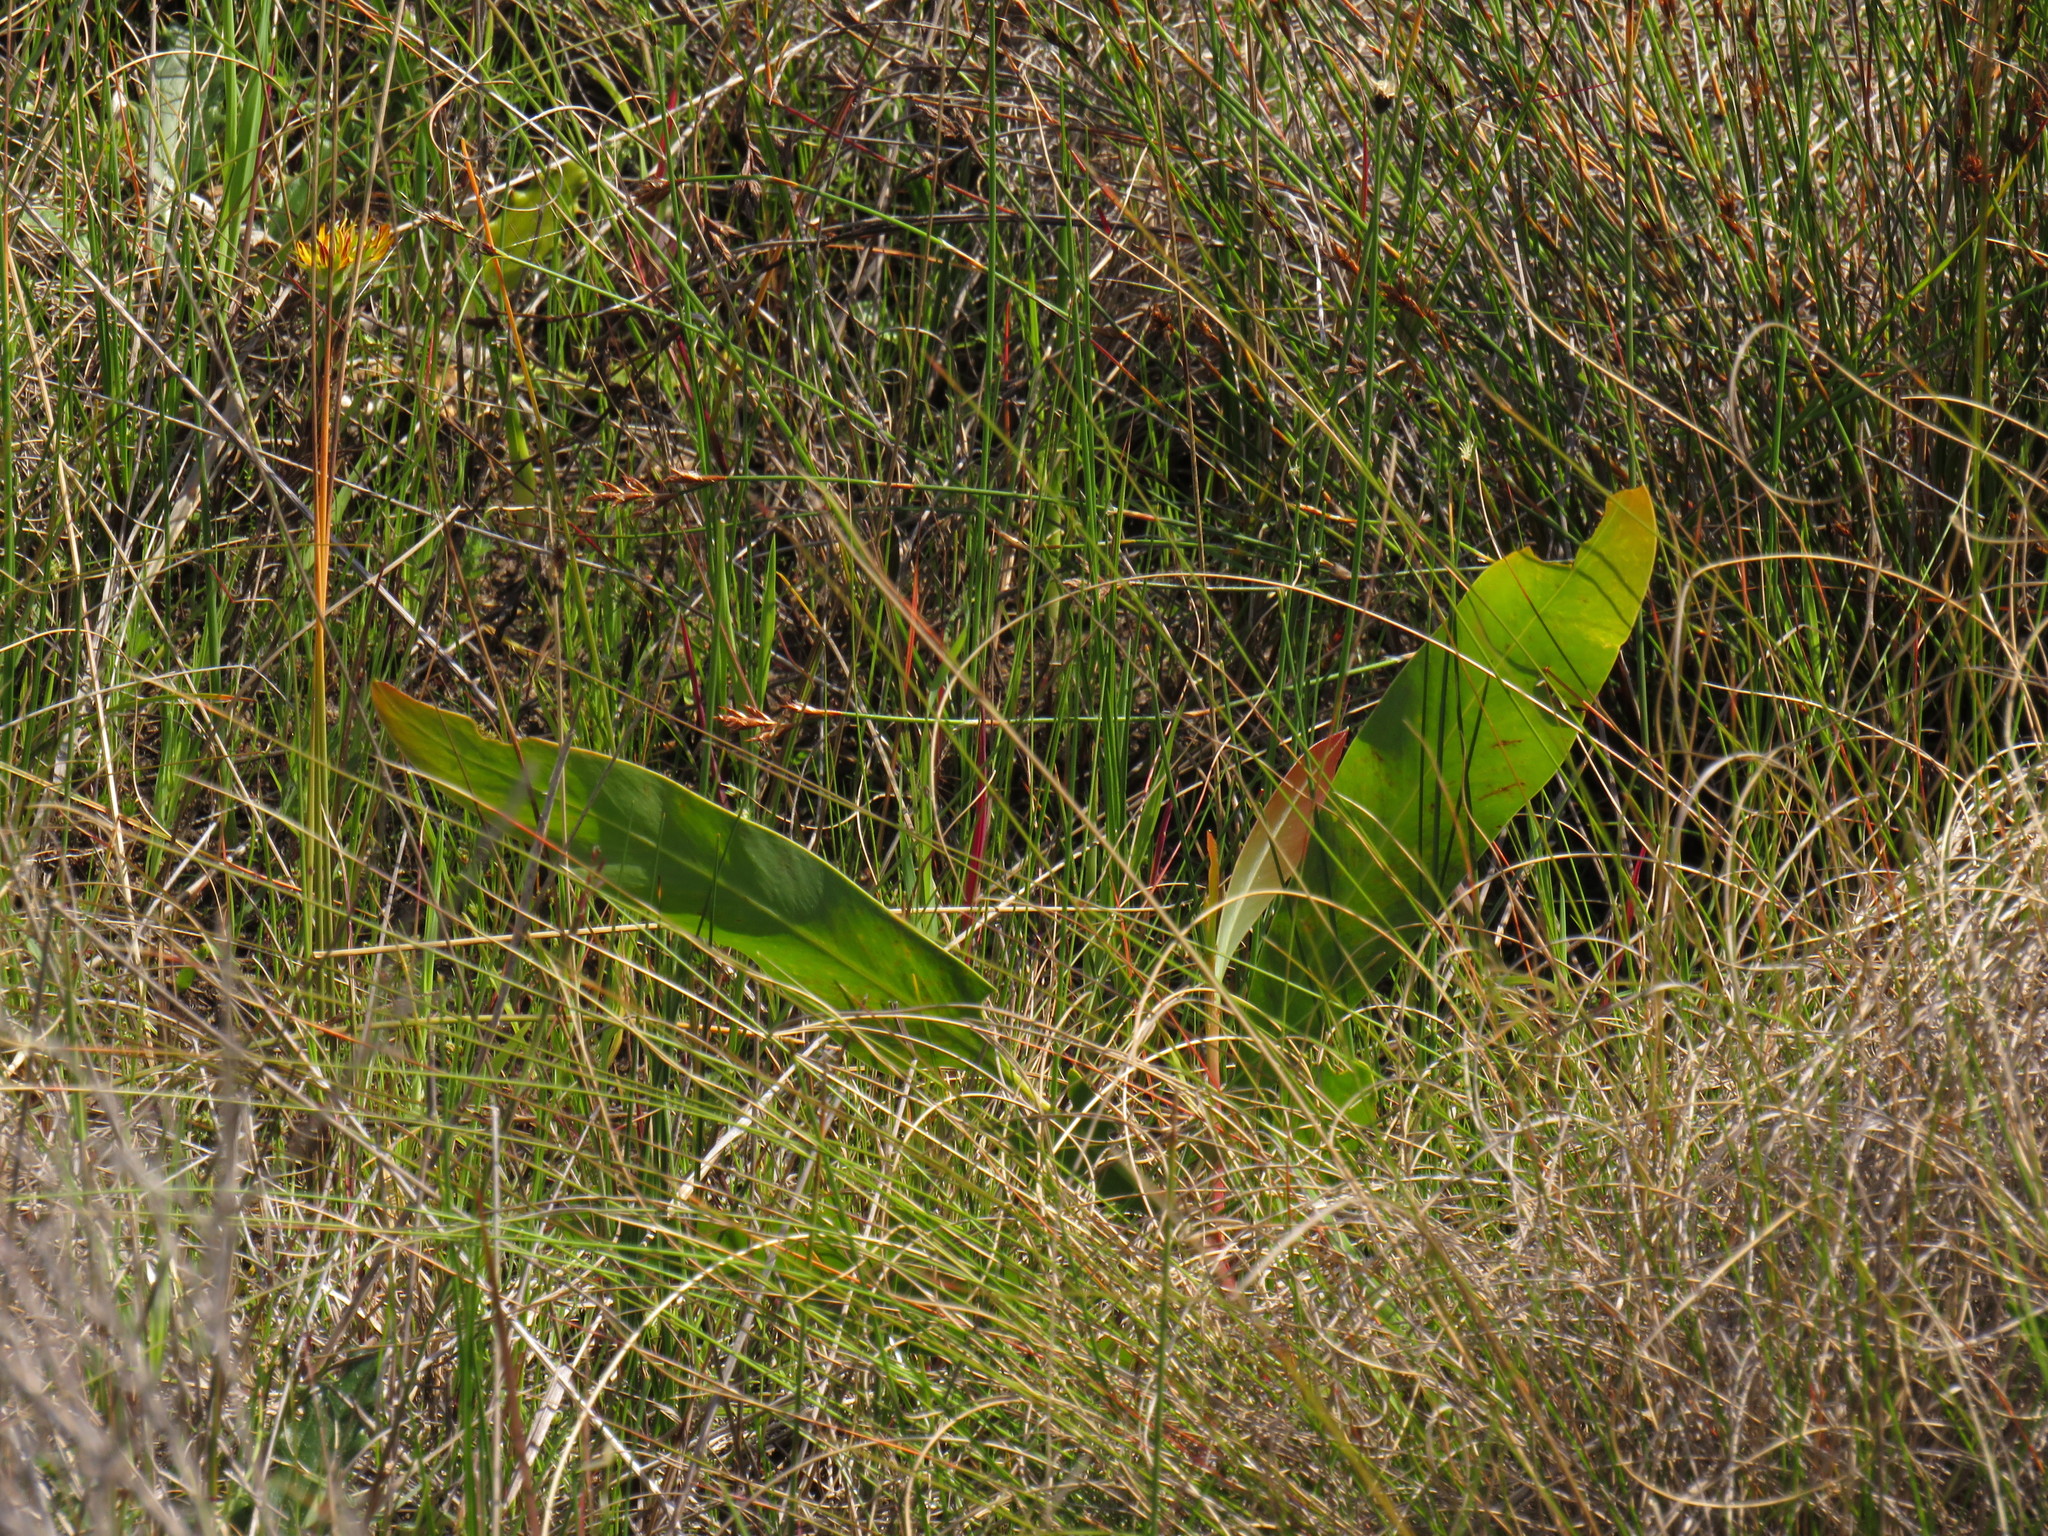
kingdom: Plantae
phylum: Tracheophyta
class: Magnoliopsida
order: Fabales
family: Fabaceae
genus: Acacia
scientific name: Acacia saligna
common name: Orange wattle
